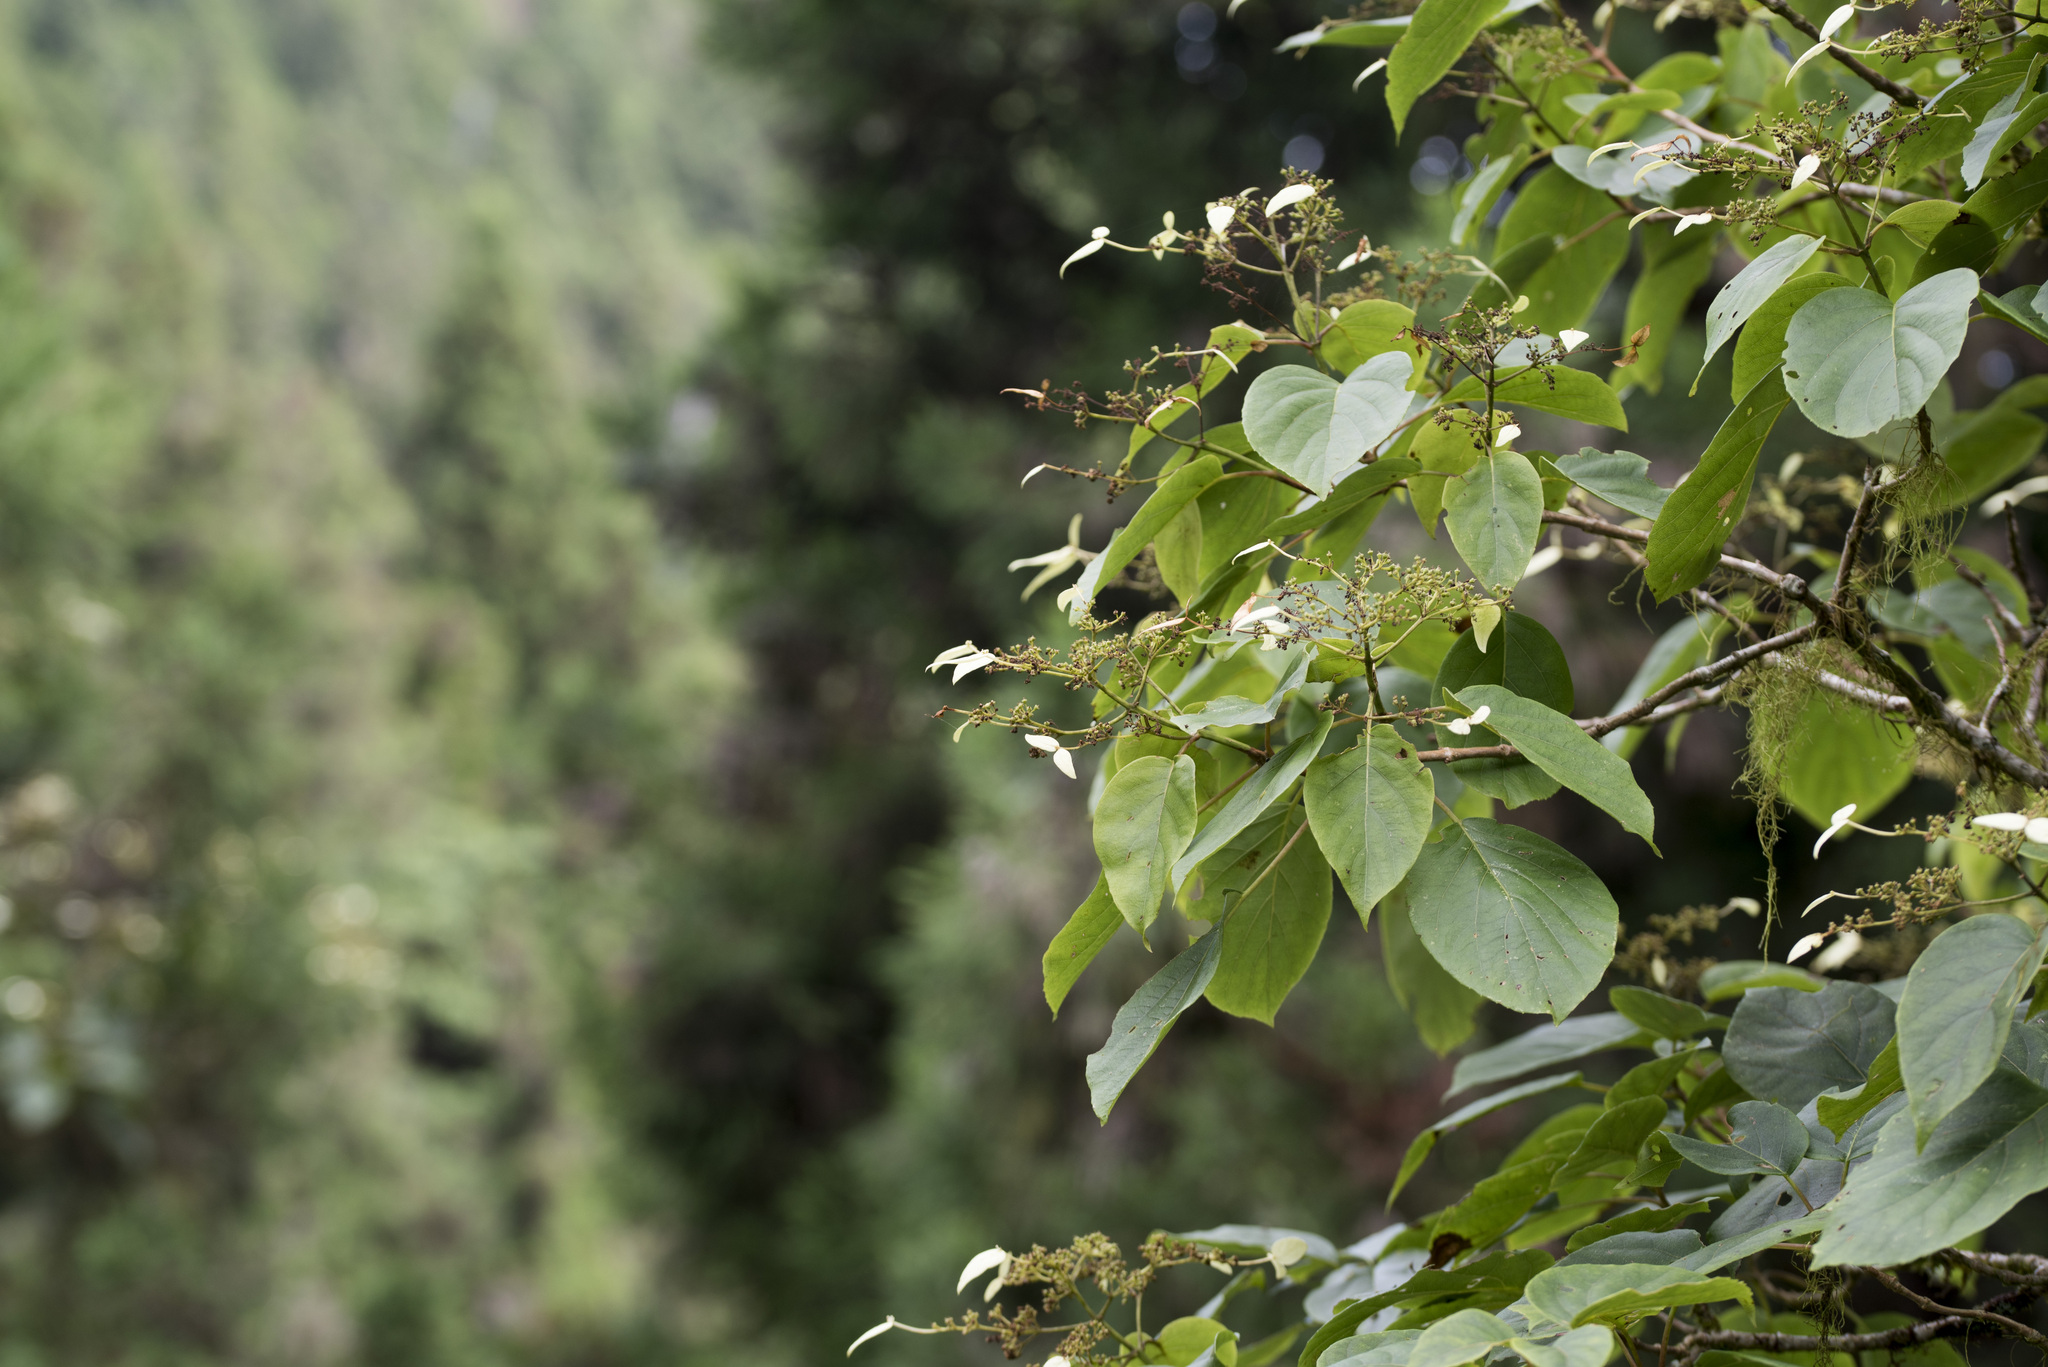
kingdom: Plantae
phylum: Tracheophyta
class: Magnoliopsida
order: Cornales
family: Hydrangeaceae
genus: Hydrangea
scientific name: Hydrangea fauriei
